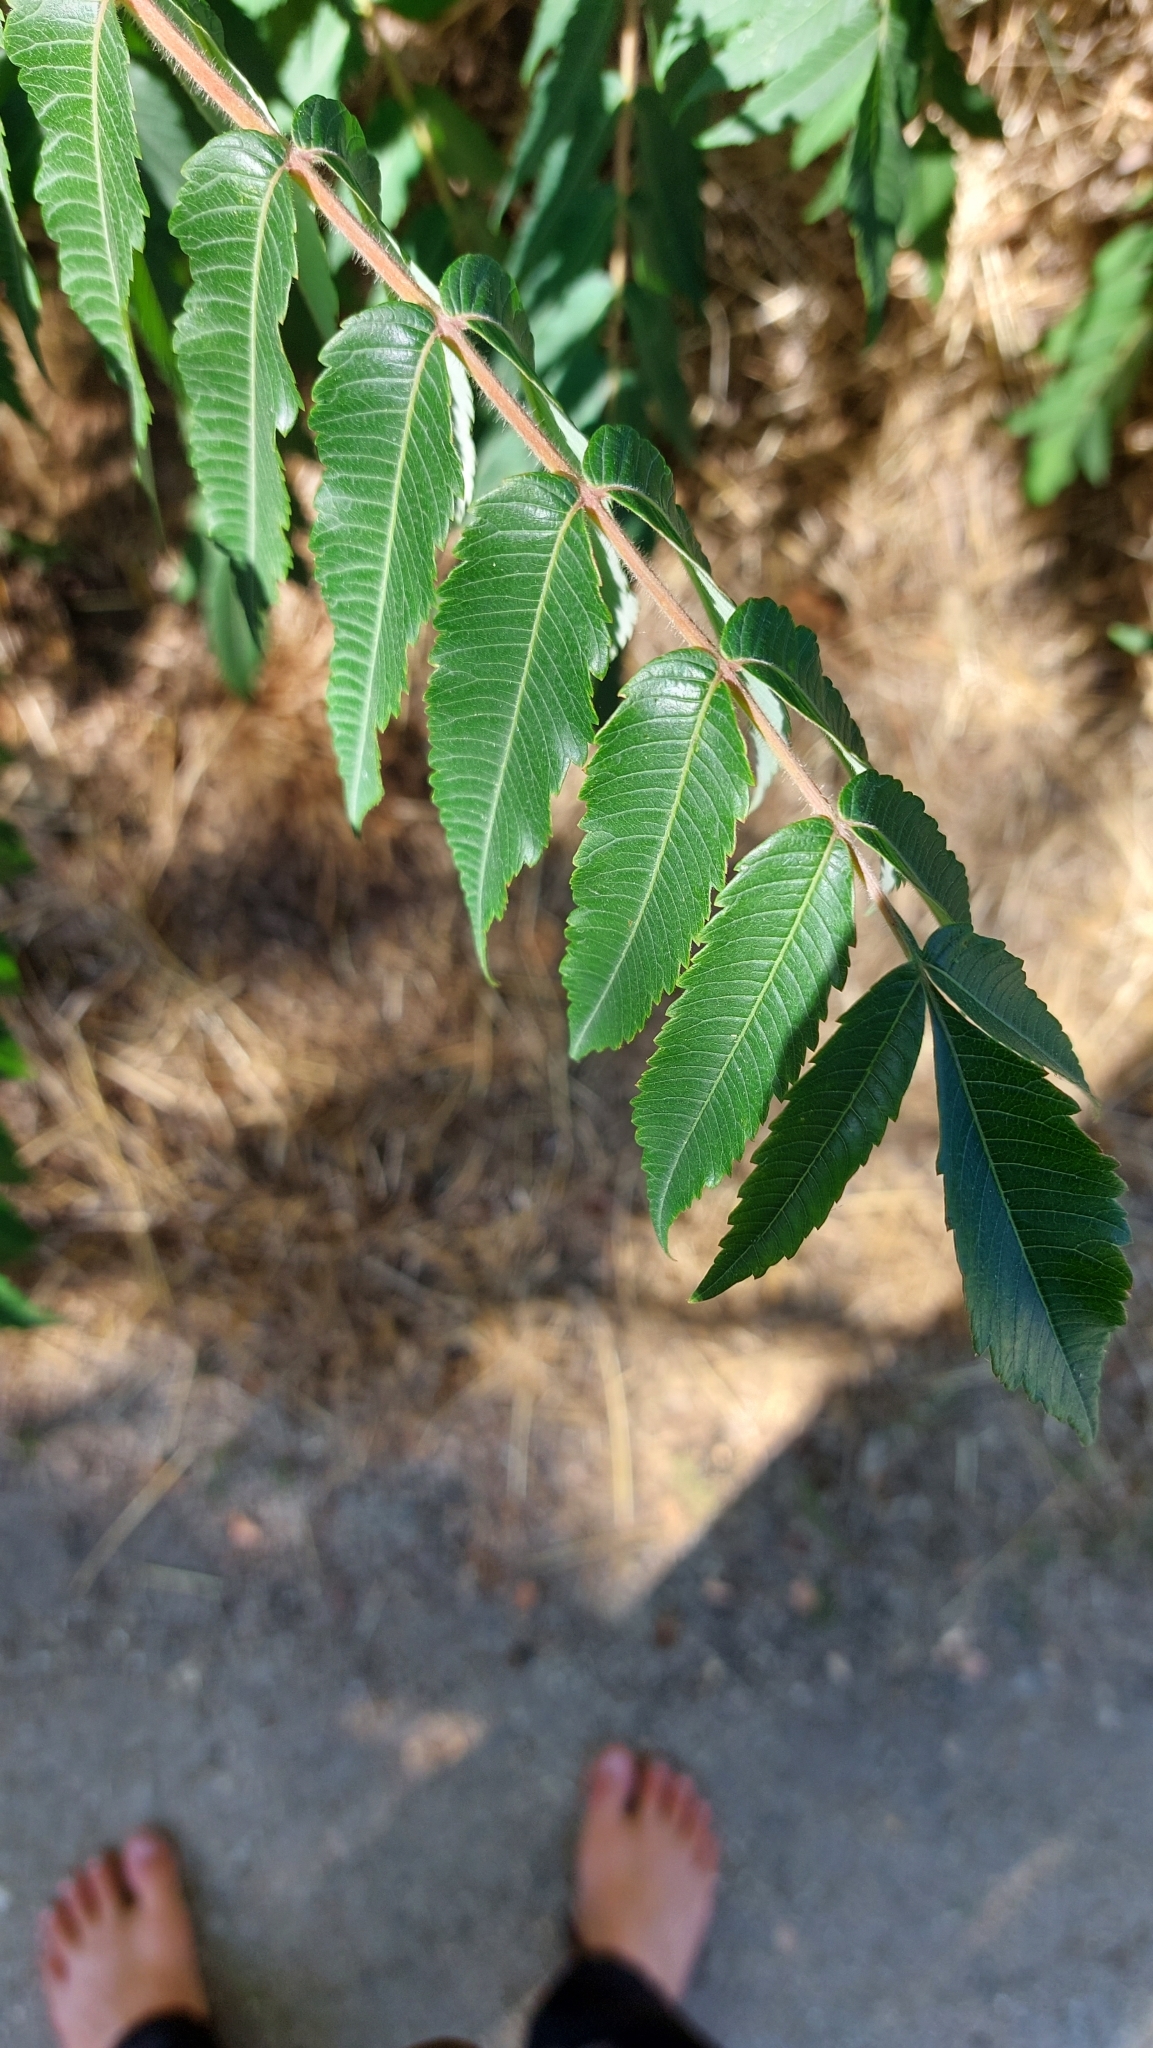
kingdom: Plantae
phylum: Tracheophyta
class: Magnoliopsida
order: Sapindales
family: Anacardiaceae
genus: Rhus
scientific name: Rhus typhina
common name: Staghorn sumac
